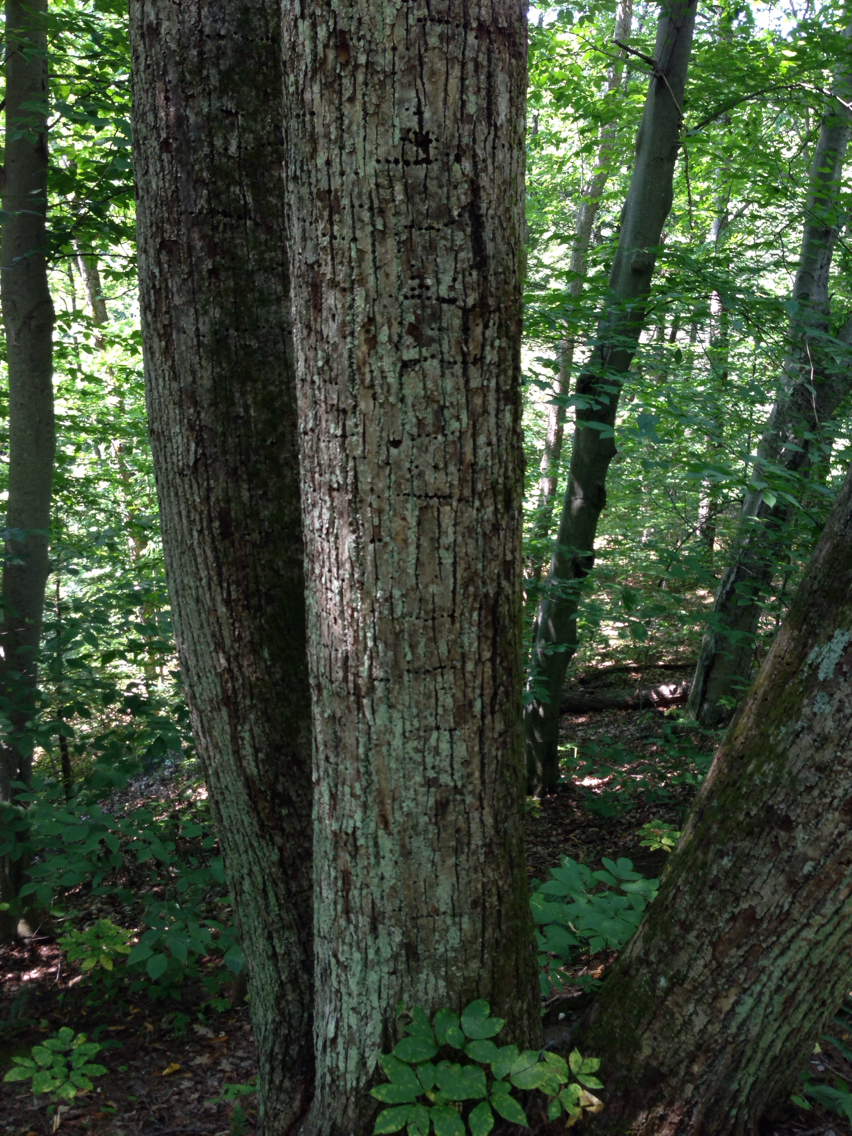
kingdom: Plantae
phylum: Tracheophyta
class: Magnoliopsida
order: Malvales
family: Malvaceae
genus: Tilia
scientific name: Tilia americana
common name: Basswood
